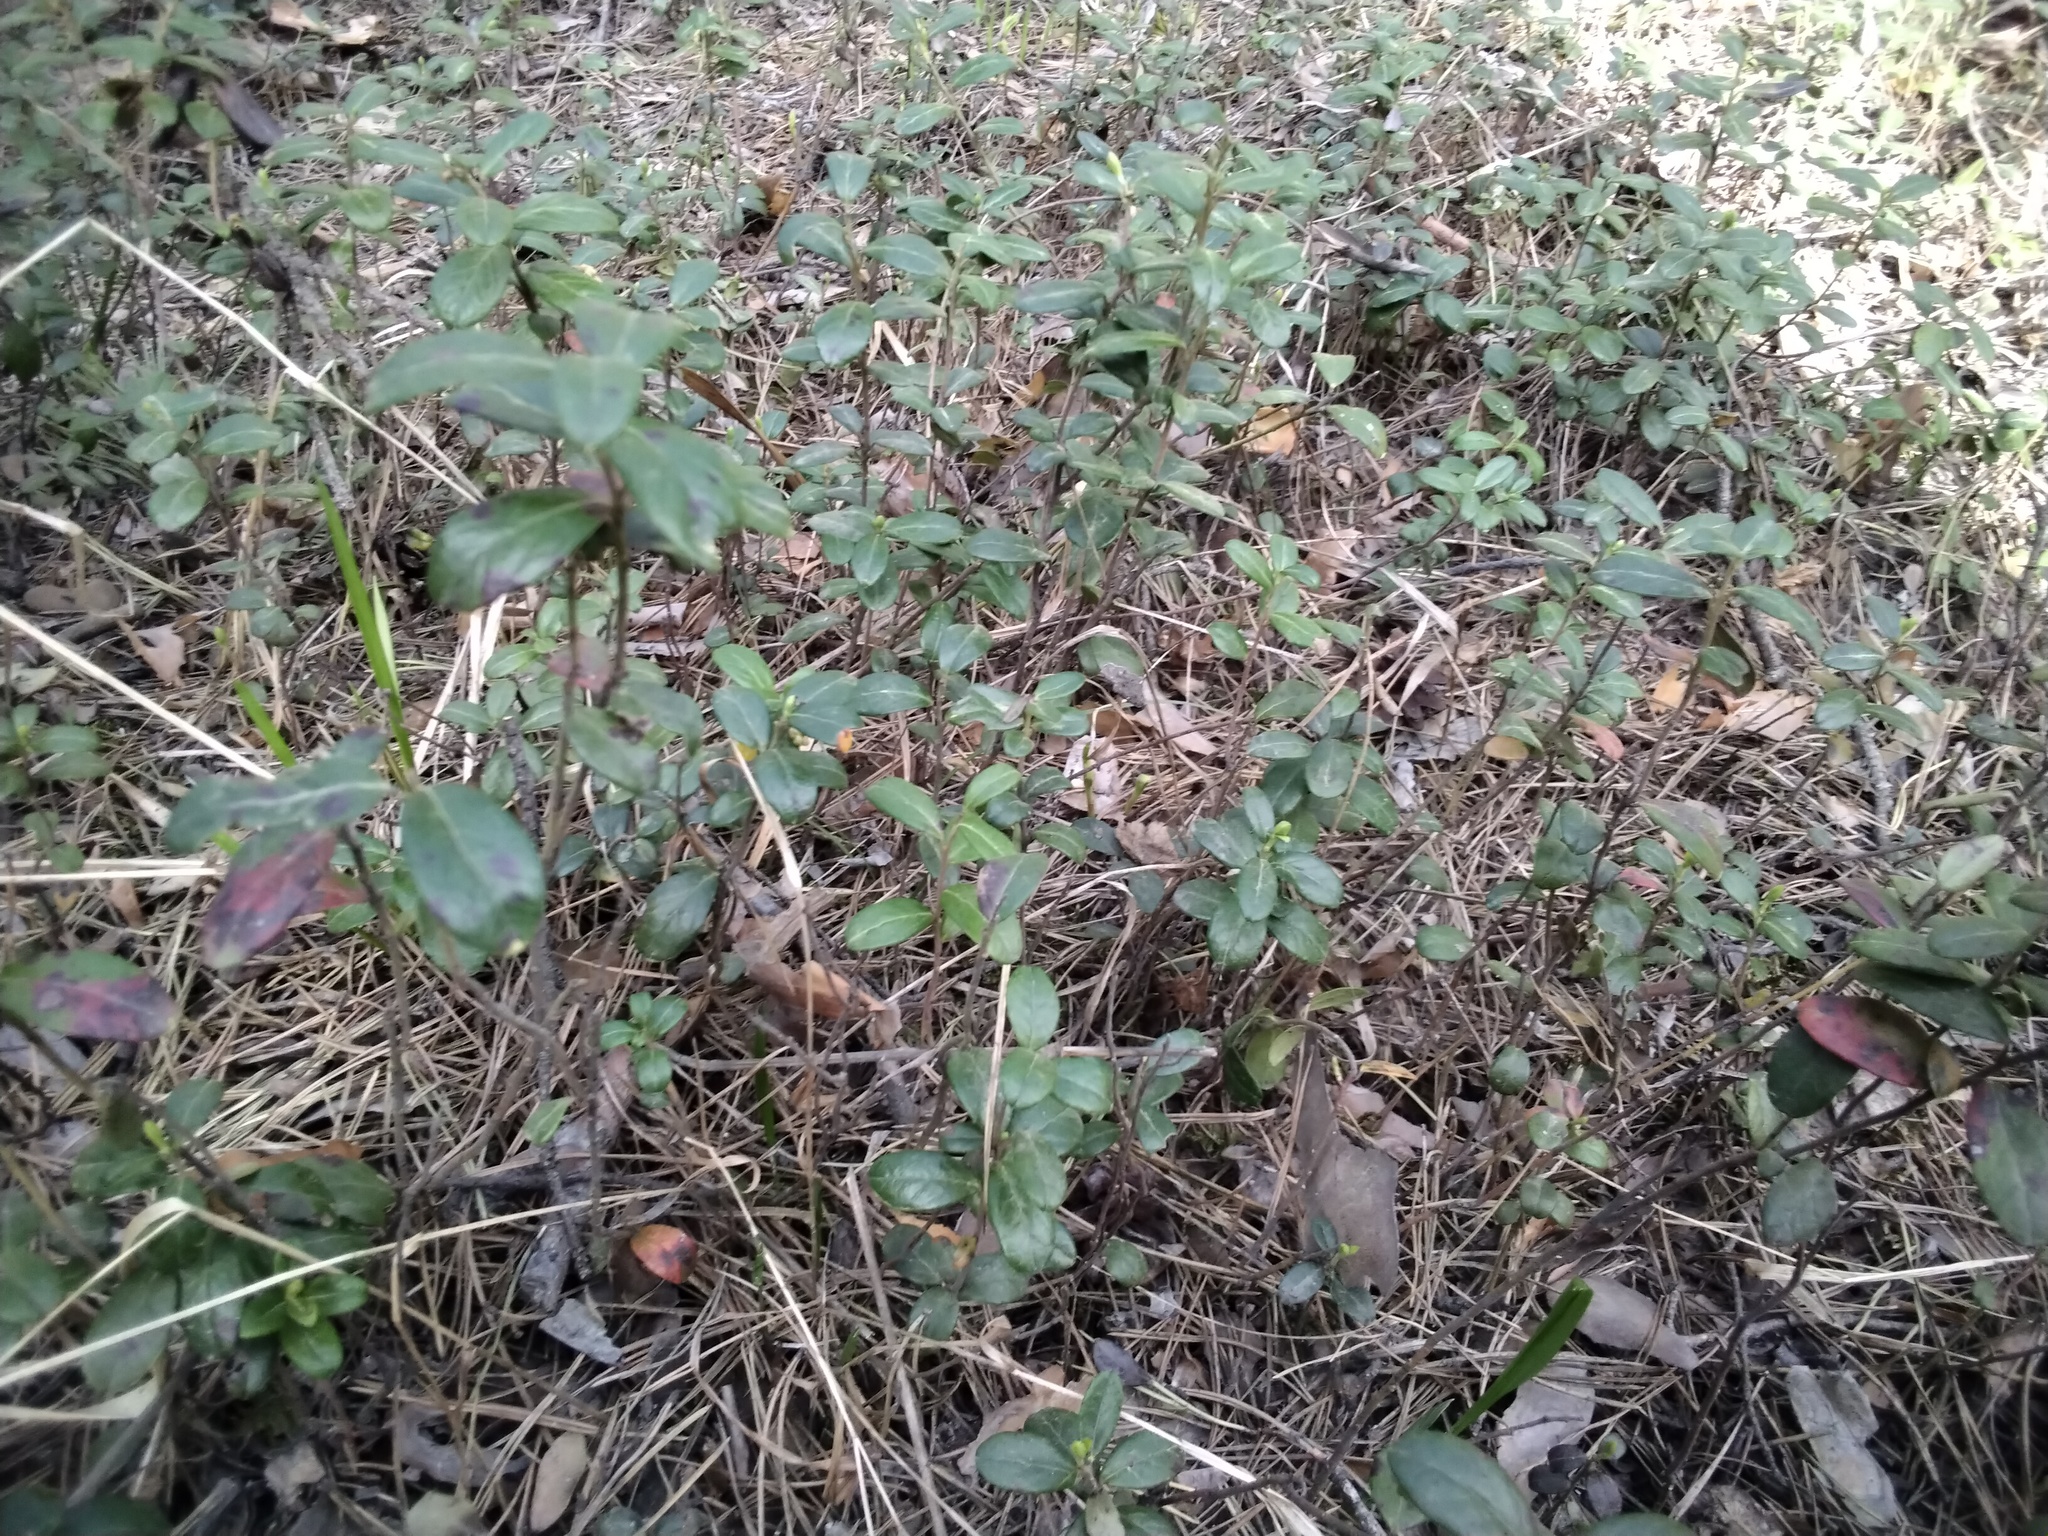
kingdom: Plantae
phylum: Tracheophyta
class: Magnoliopsida
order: Ericales
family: Ericaceae
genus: Vaccinium
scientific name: Vaccinium vitis-idaea
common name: Cowberry
